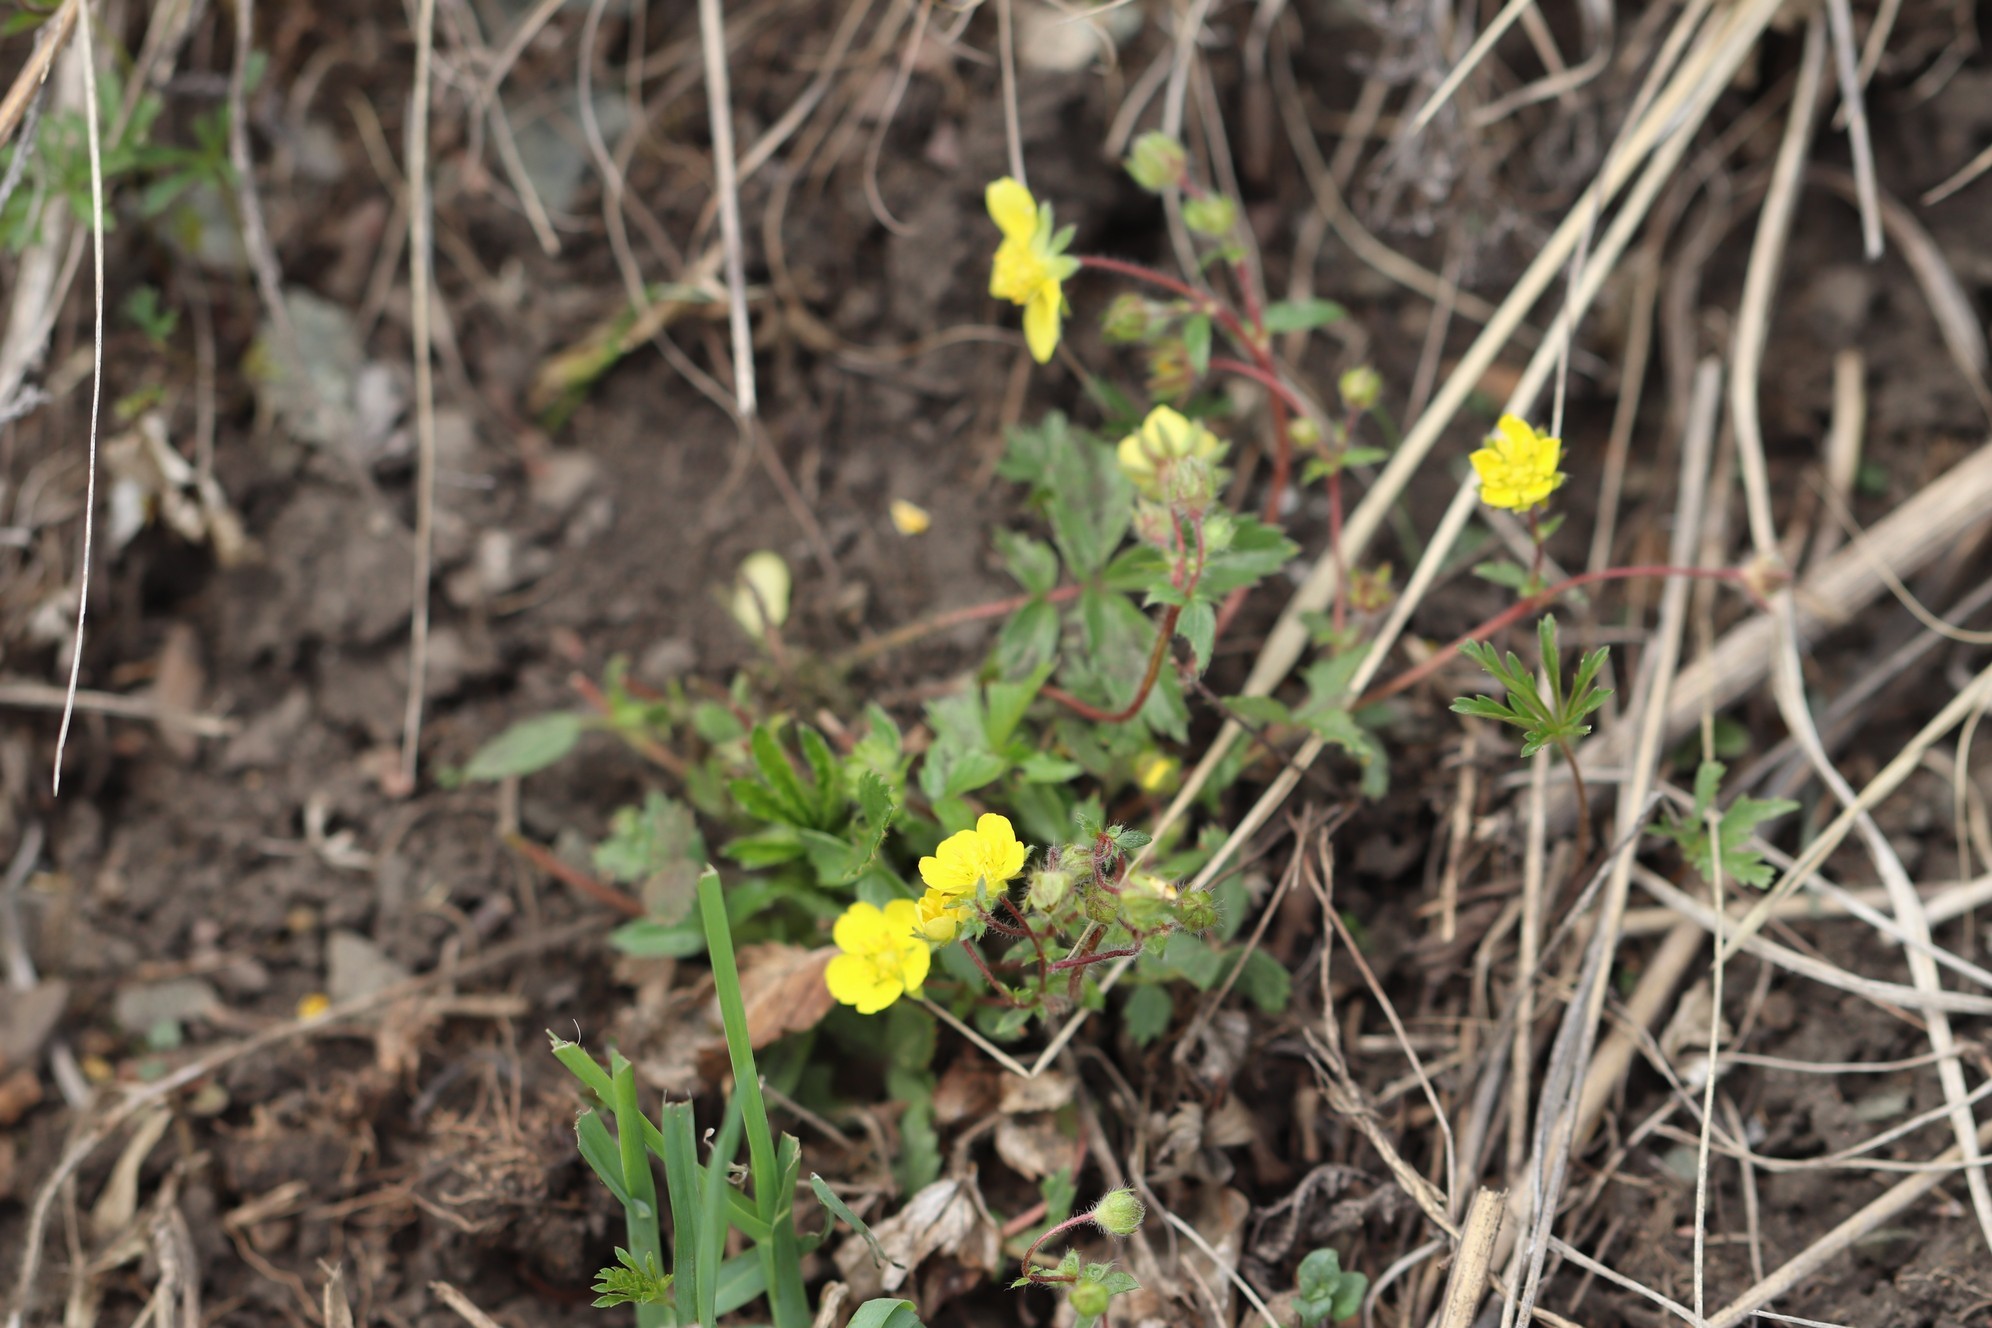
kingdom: Plantae
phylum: Tracheophyta
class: Magnoliopsida
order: Rosales
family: Rosaceae
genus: Potentilla
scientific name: Potentilla fragarioides
